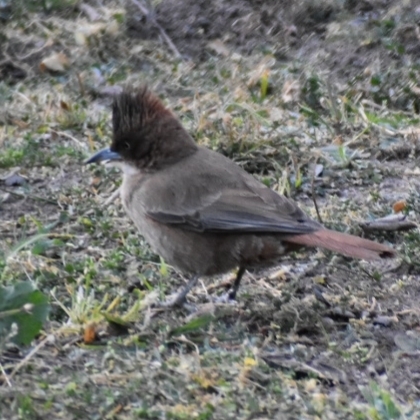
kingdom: Animalia
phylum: Chordata
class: Aves
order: Passeriformes
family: Furnariidae
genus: Pseudoseisura
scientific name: Pseudoseisura lophotes
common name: Brown cacholote
